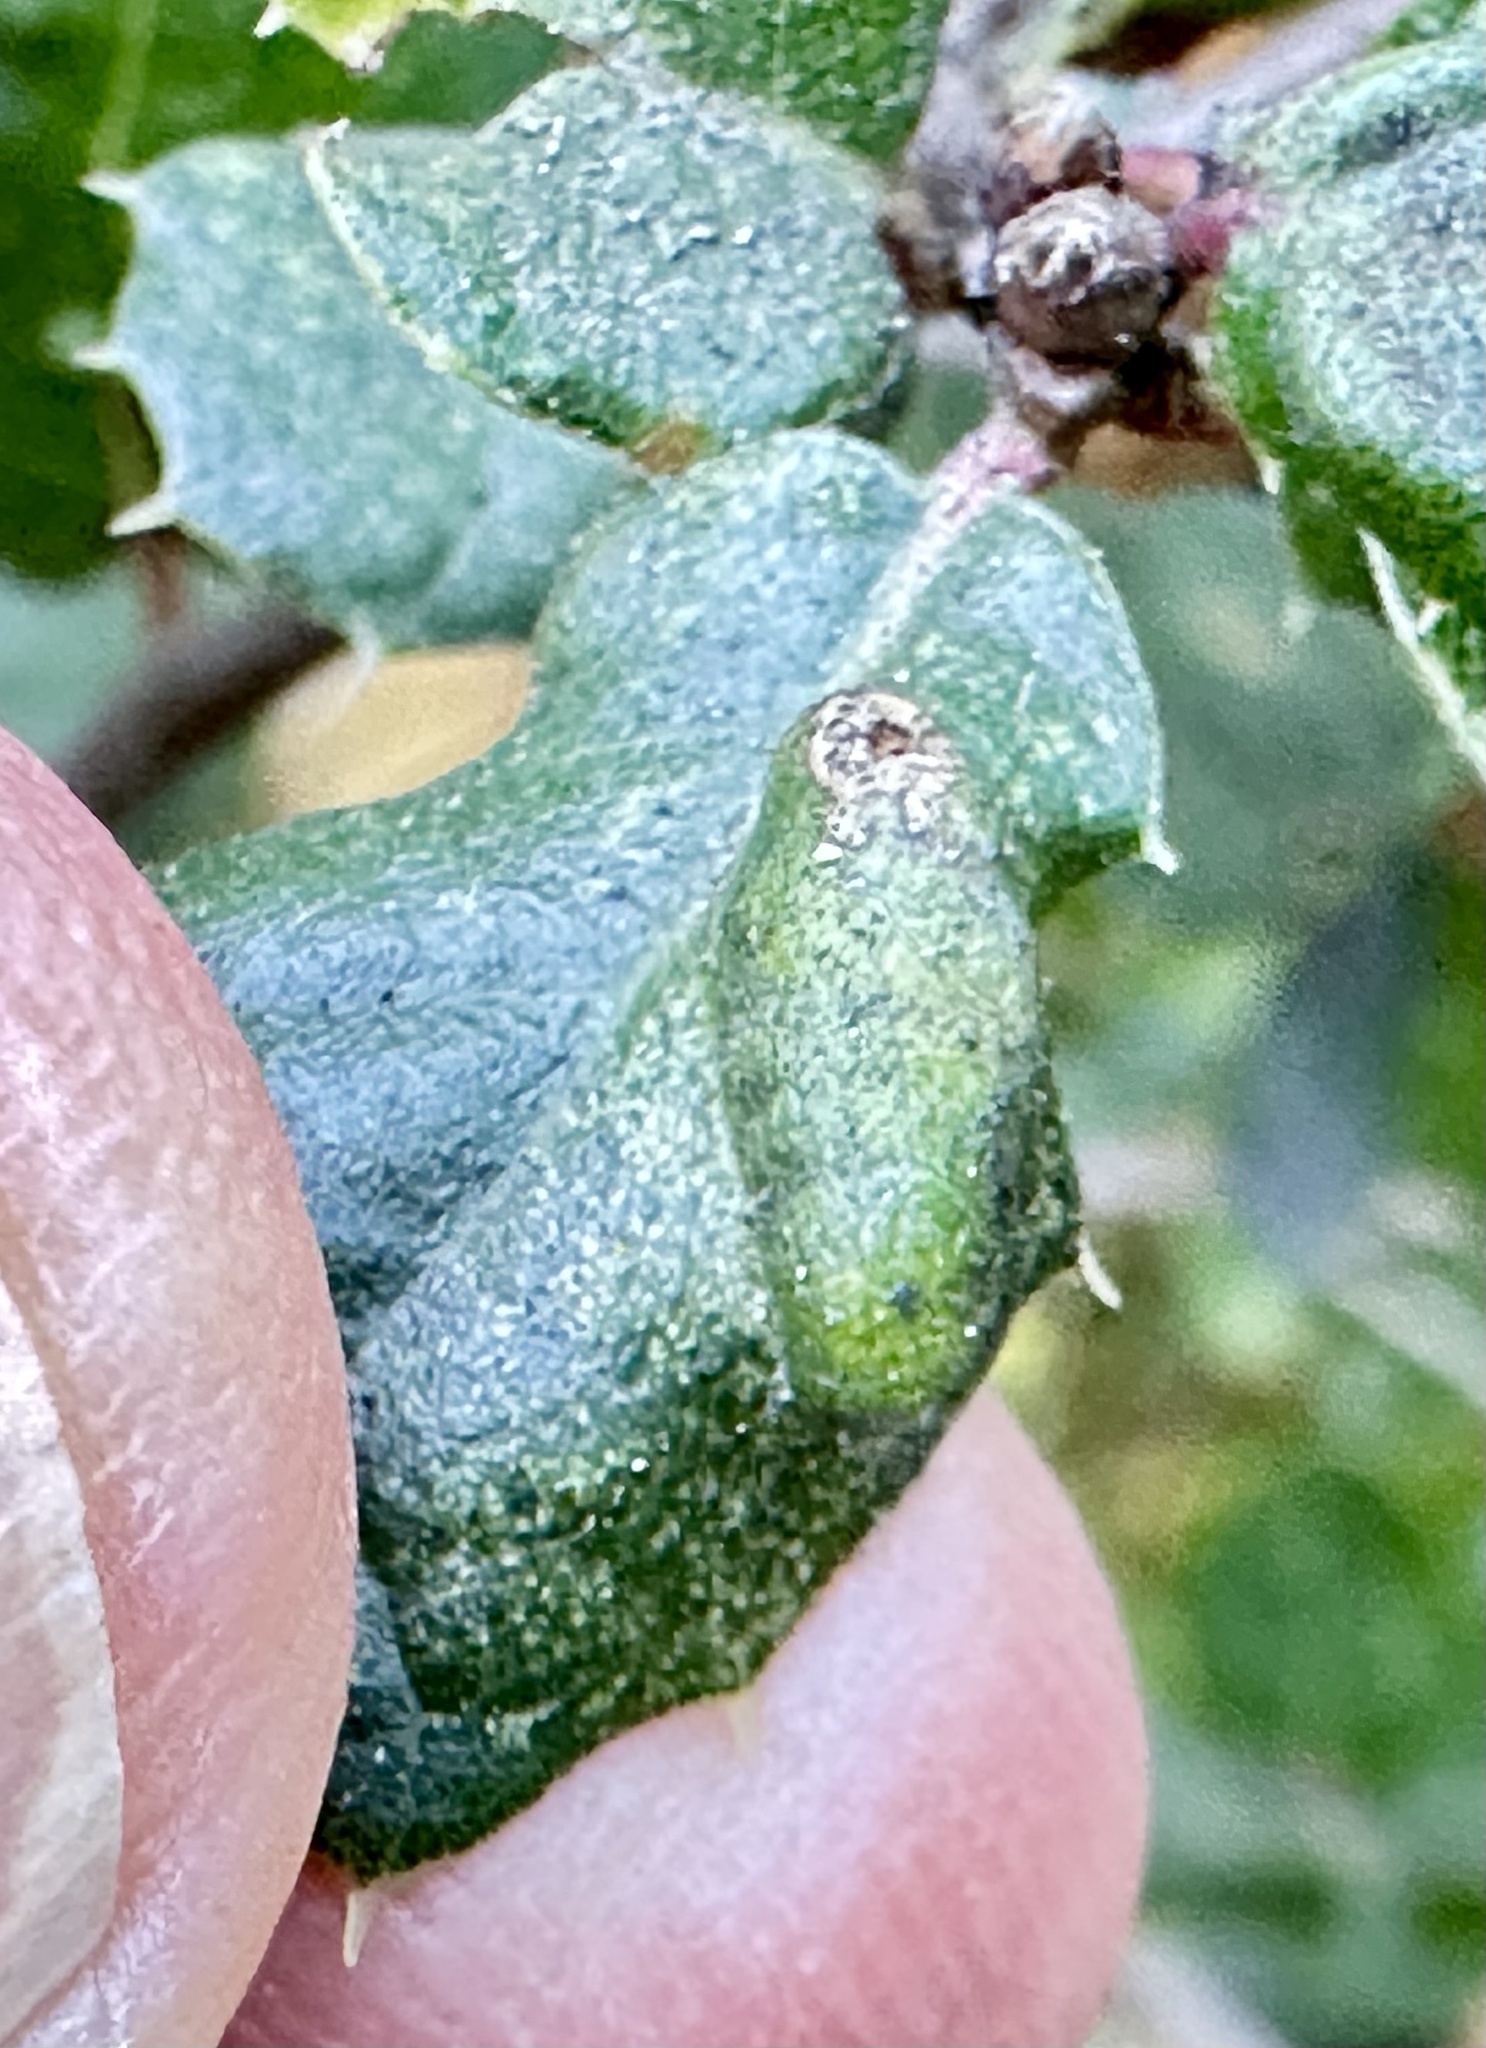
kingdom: Animalia
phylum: Arthropoda
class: Arachnida
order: Trombidiformes
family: Eriophyidae
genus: Aceria
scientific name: Aceria
